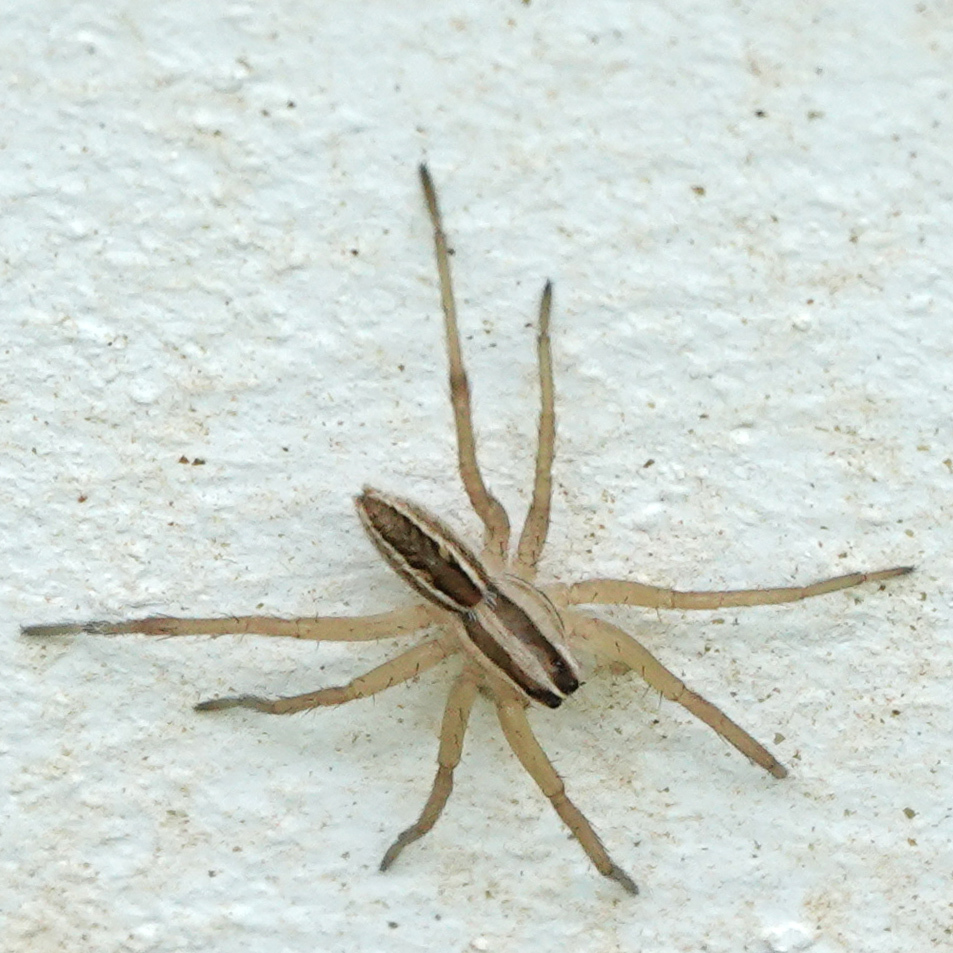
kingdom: Animalia
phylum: Arthropoda
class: Arachnida
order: Araneae
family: Lycosidae
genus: Rabidosa
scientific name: Rabidosa rabida
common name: Rabid wolf spider
